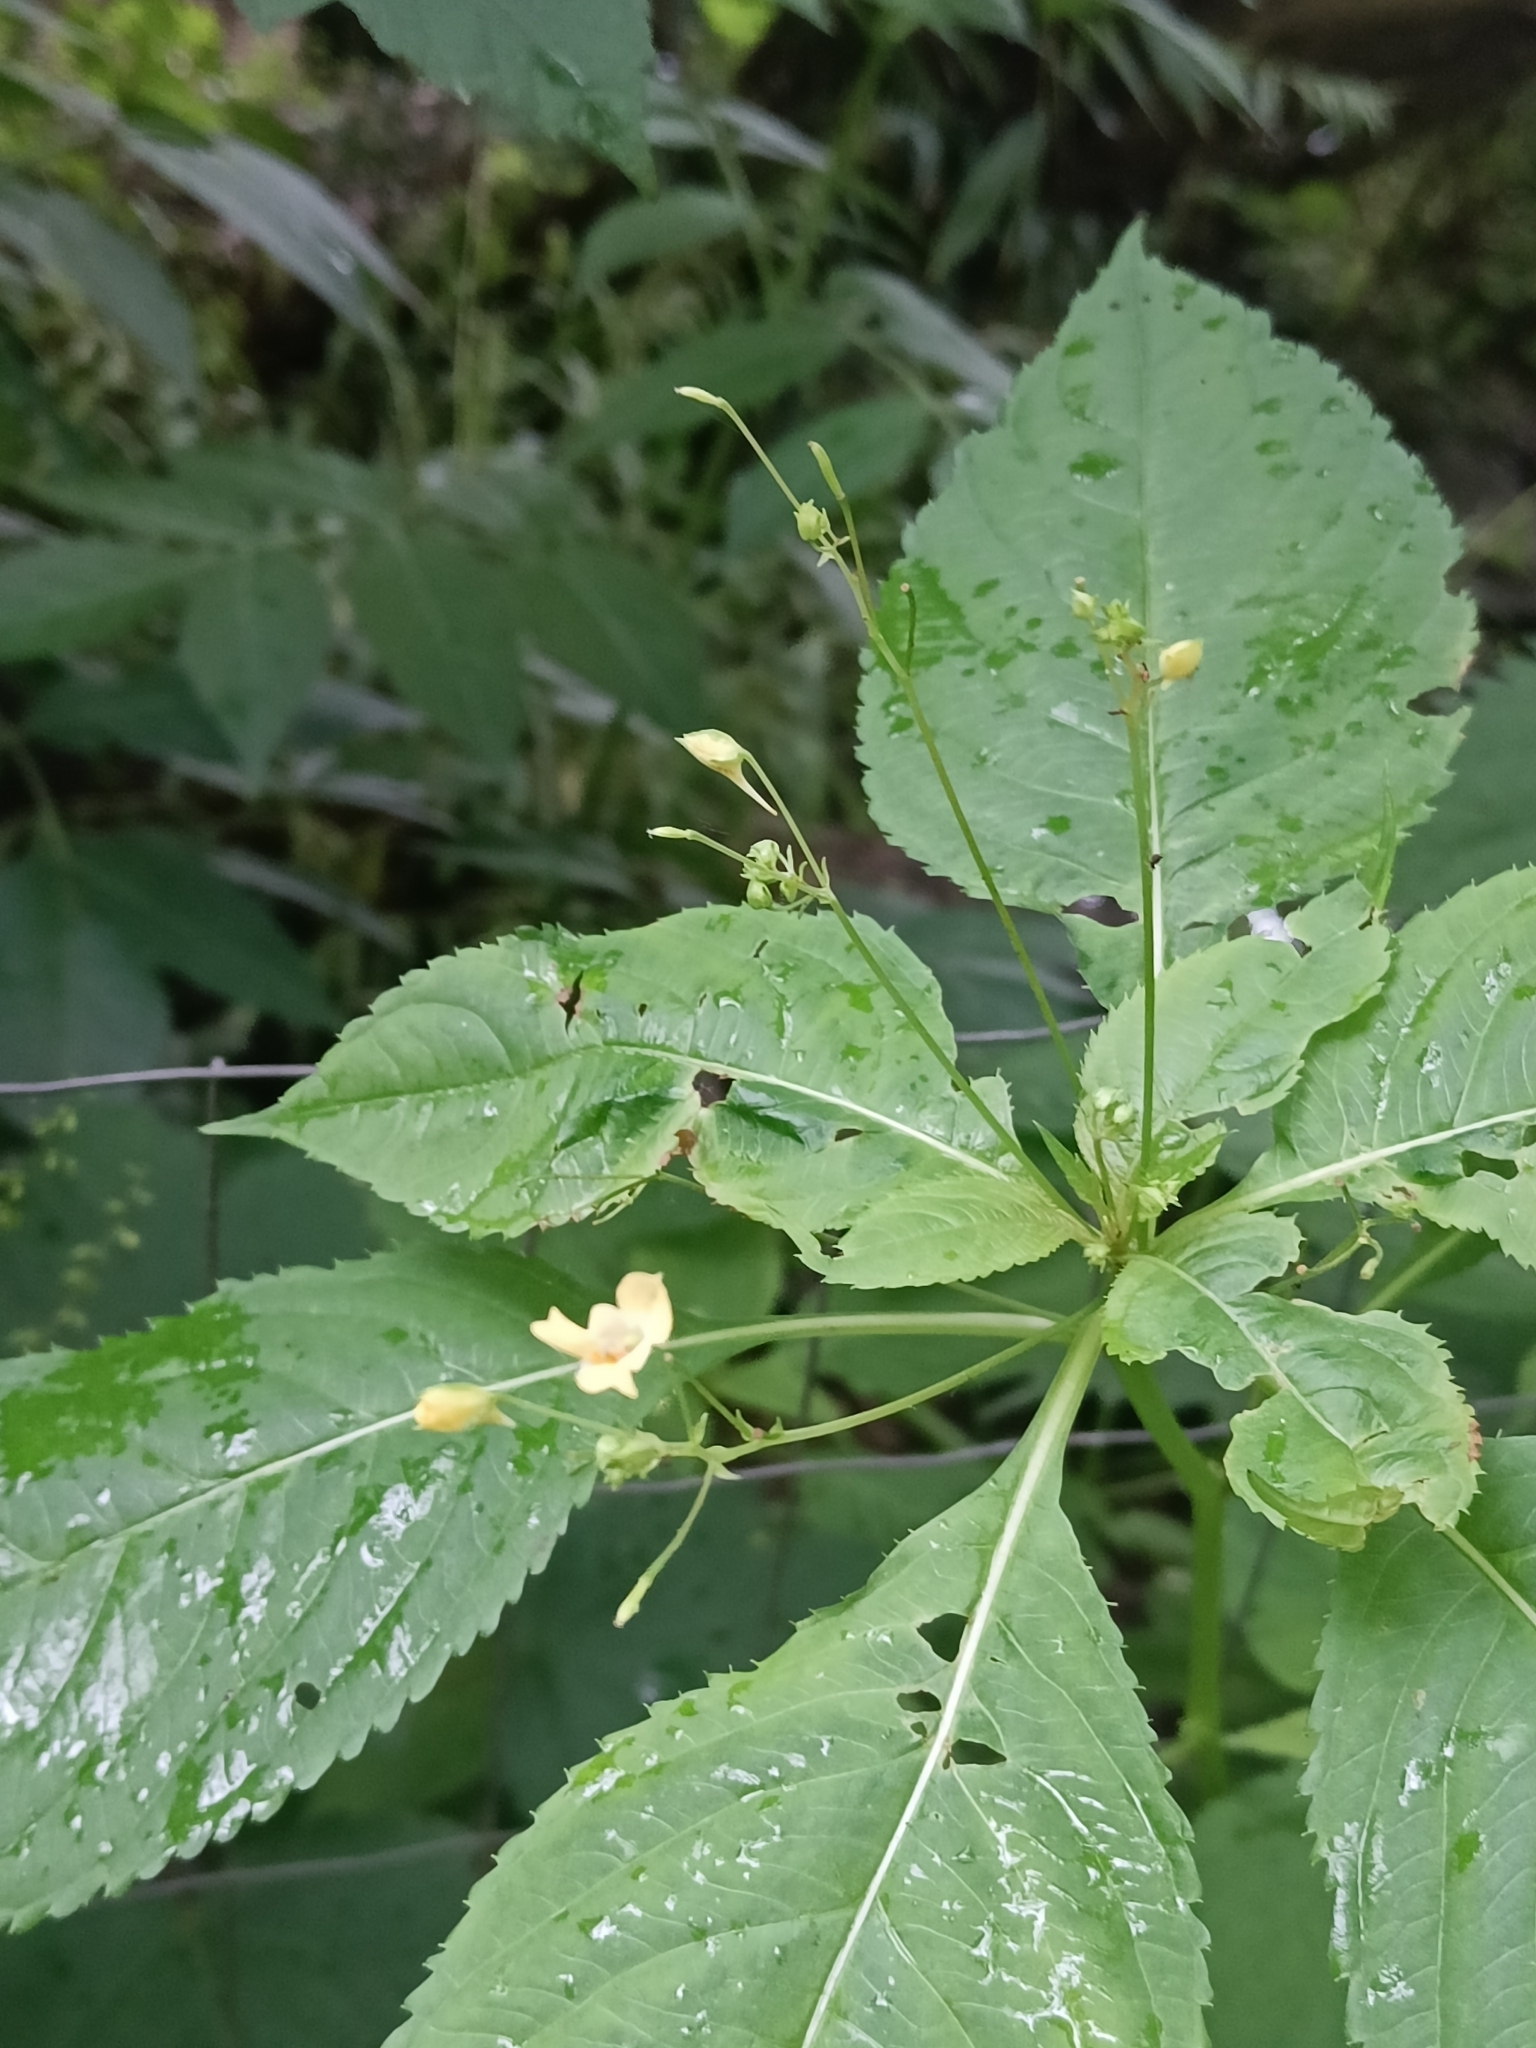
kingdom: Plantae
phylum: Tracheophyta
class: Magnoliopsida
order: Ericales
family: Balsaminaceae
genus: Impatiens
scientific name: Impatiens parviflora
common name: Small balsam
